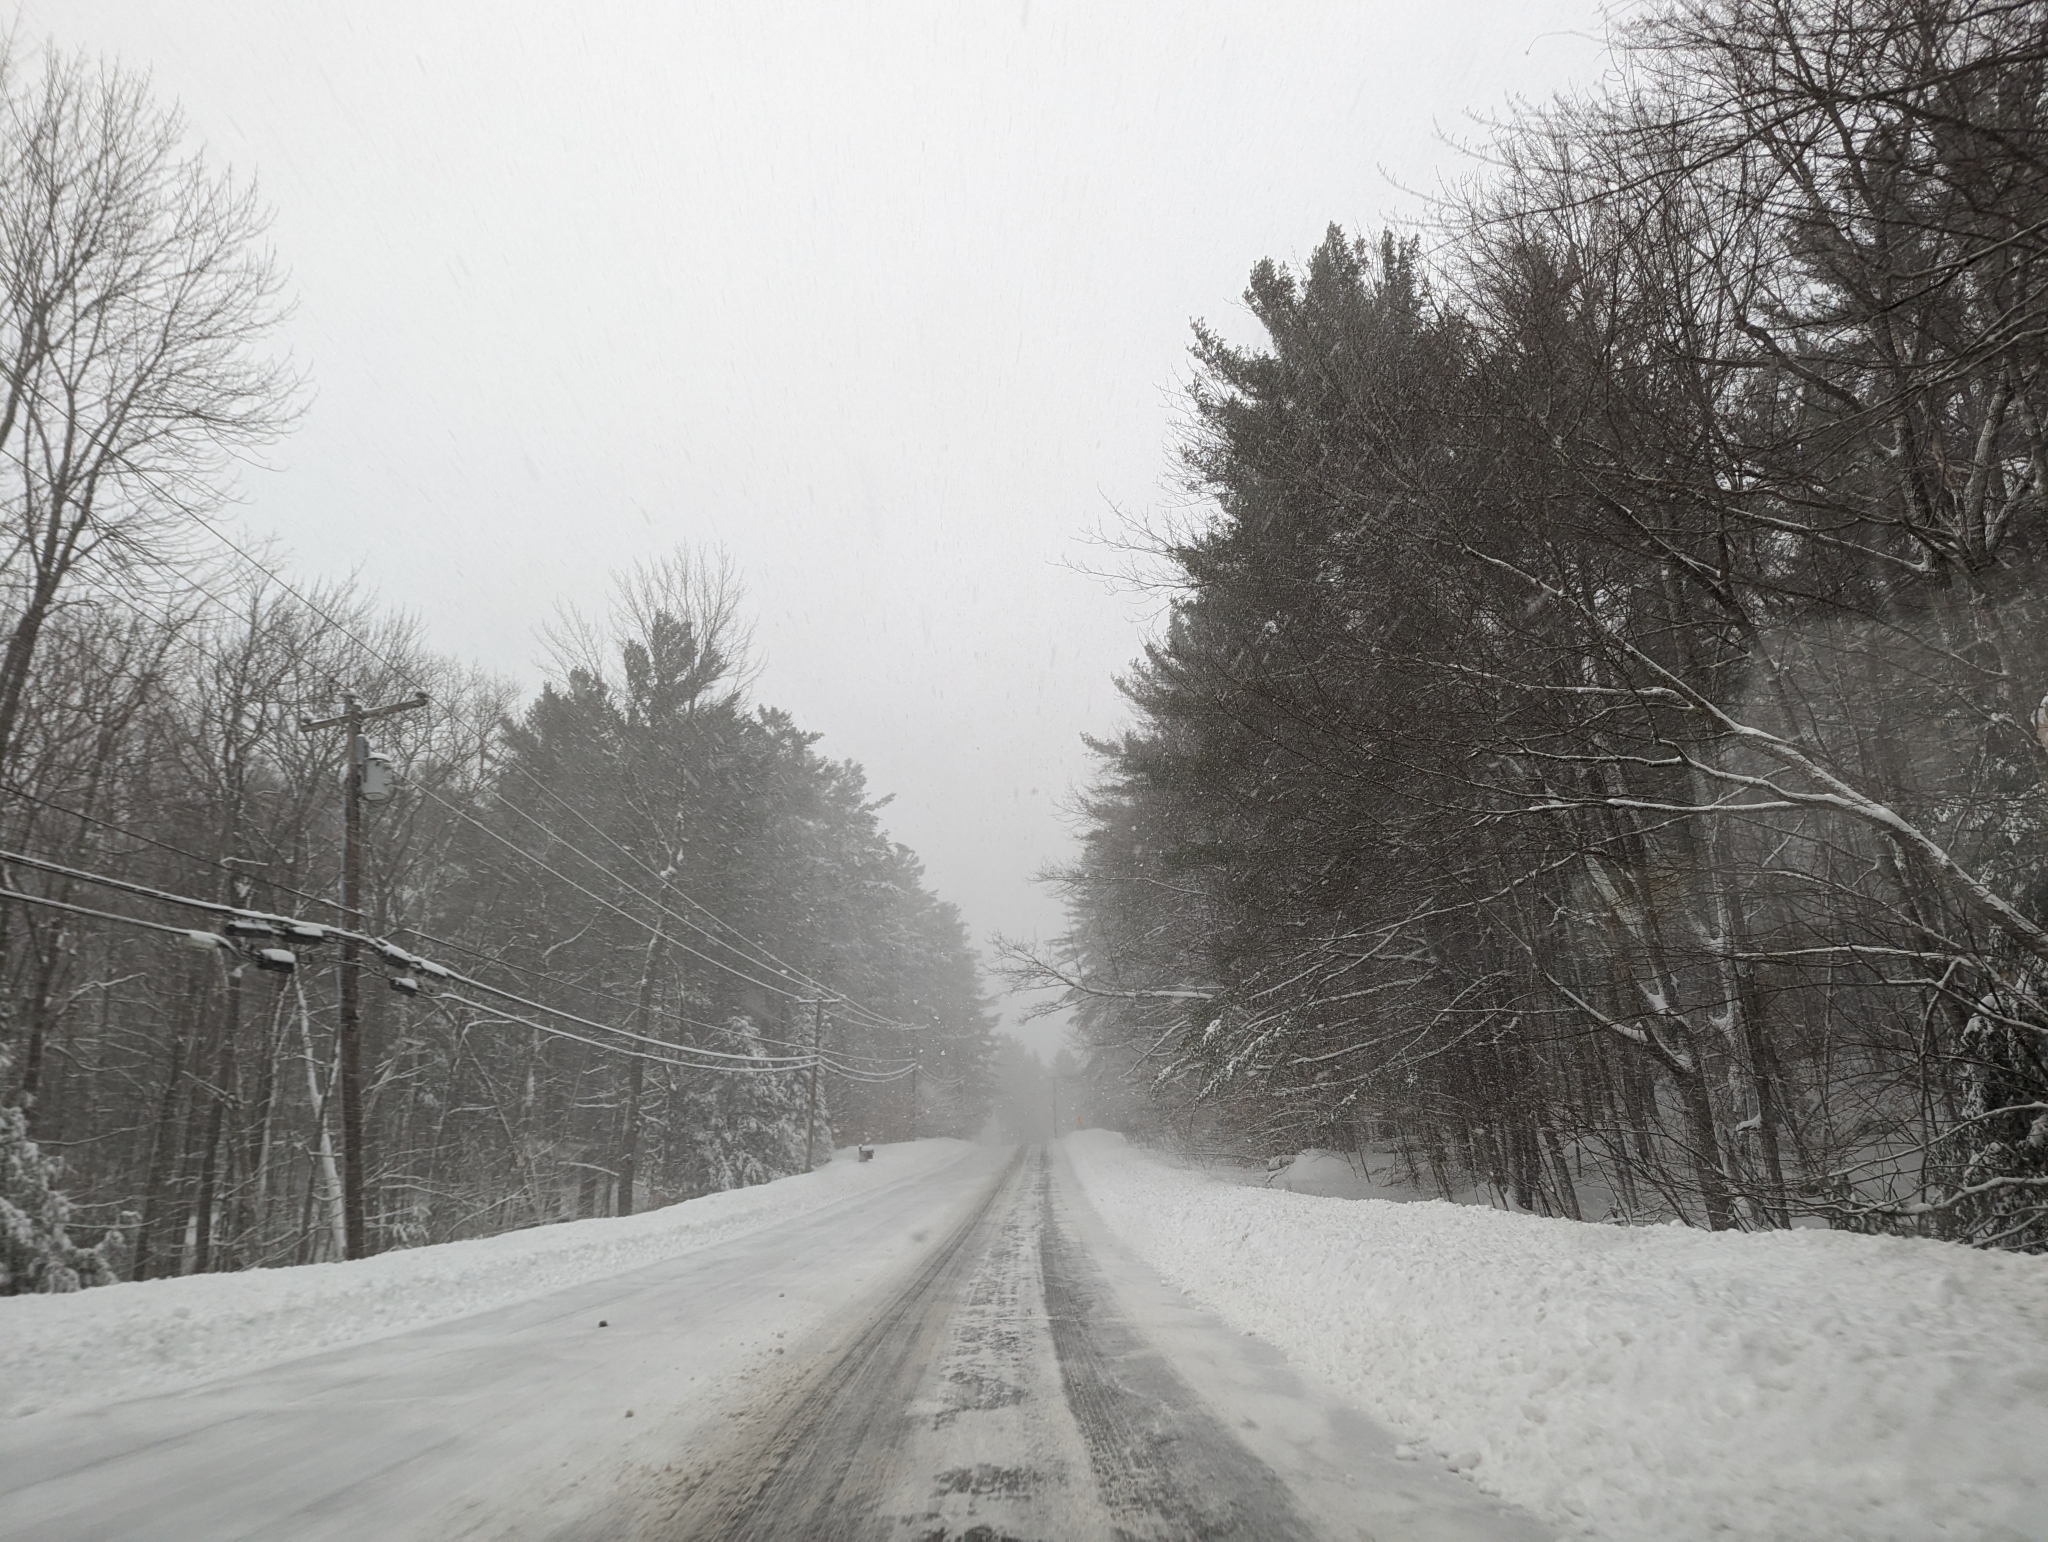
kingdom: Plantae
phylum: Tracheophyta
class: Pinopsida
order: Pinales
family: Pinaceae
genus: Pinus
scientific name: Pinus strobus
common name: Weymouth pine
